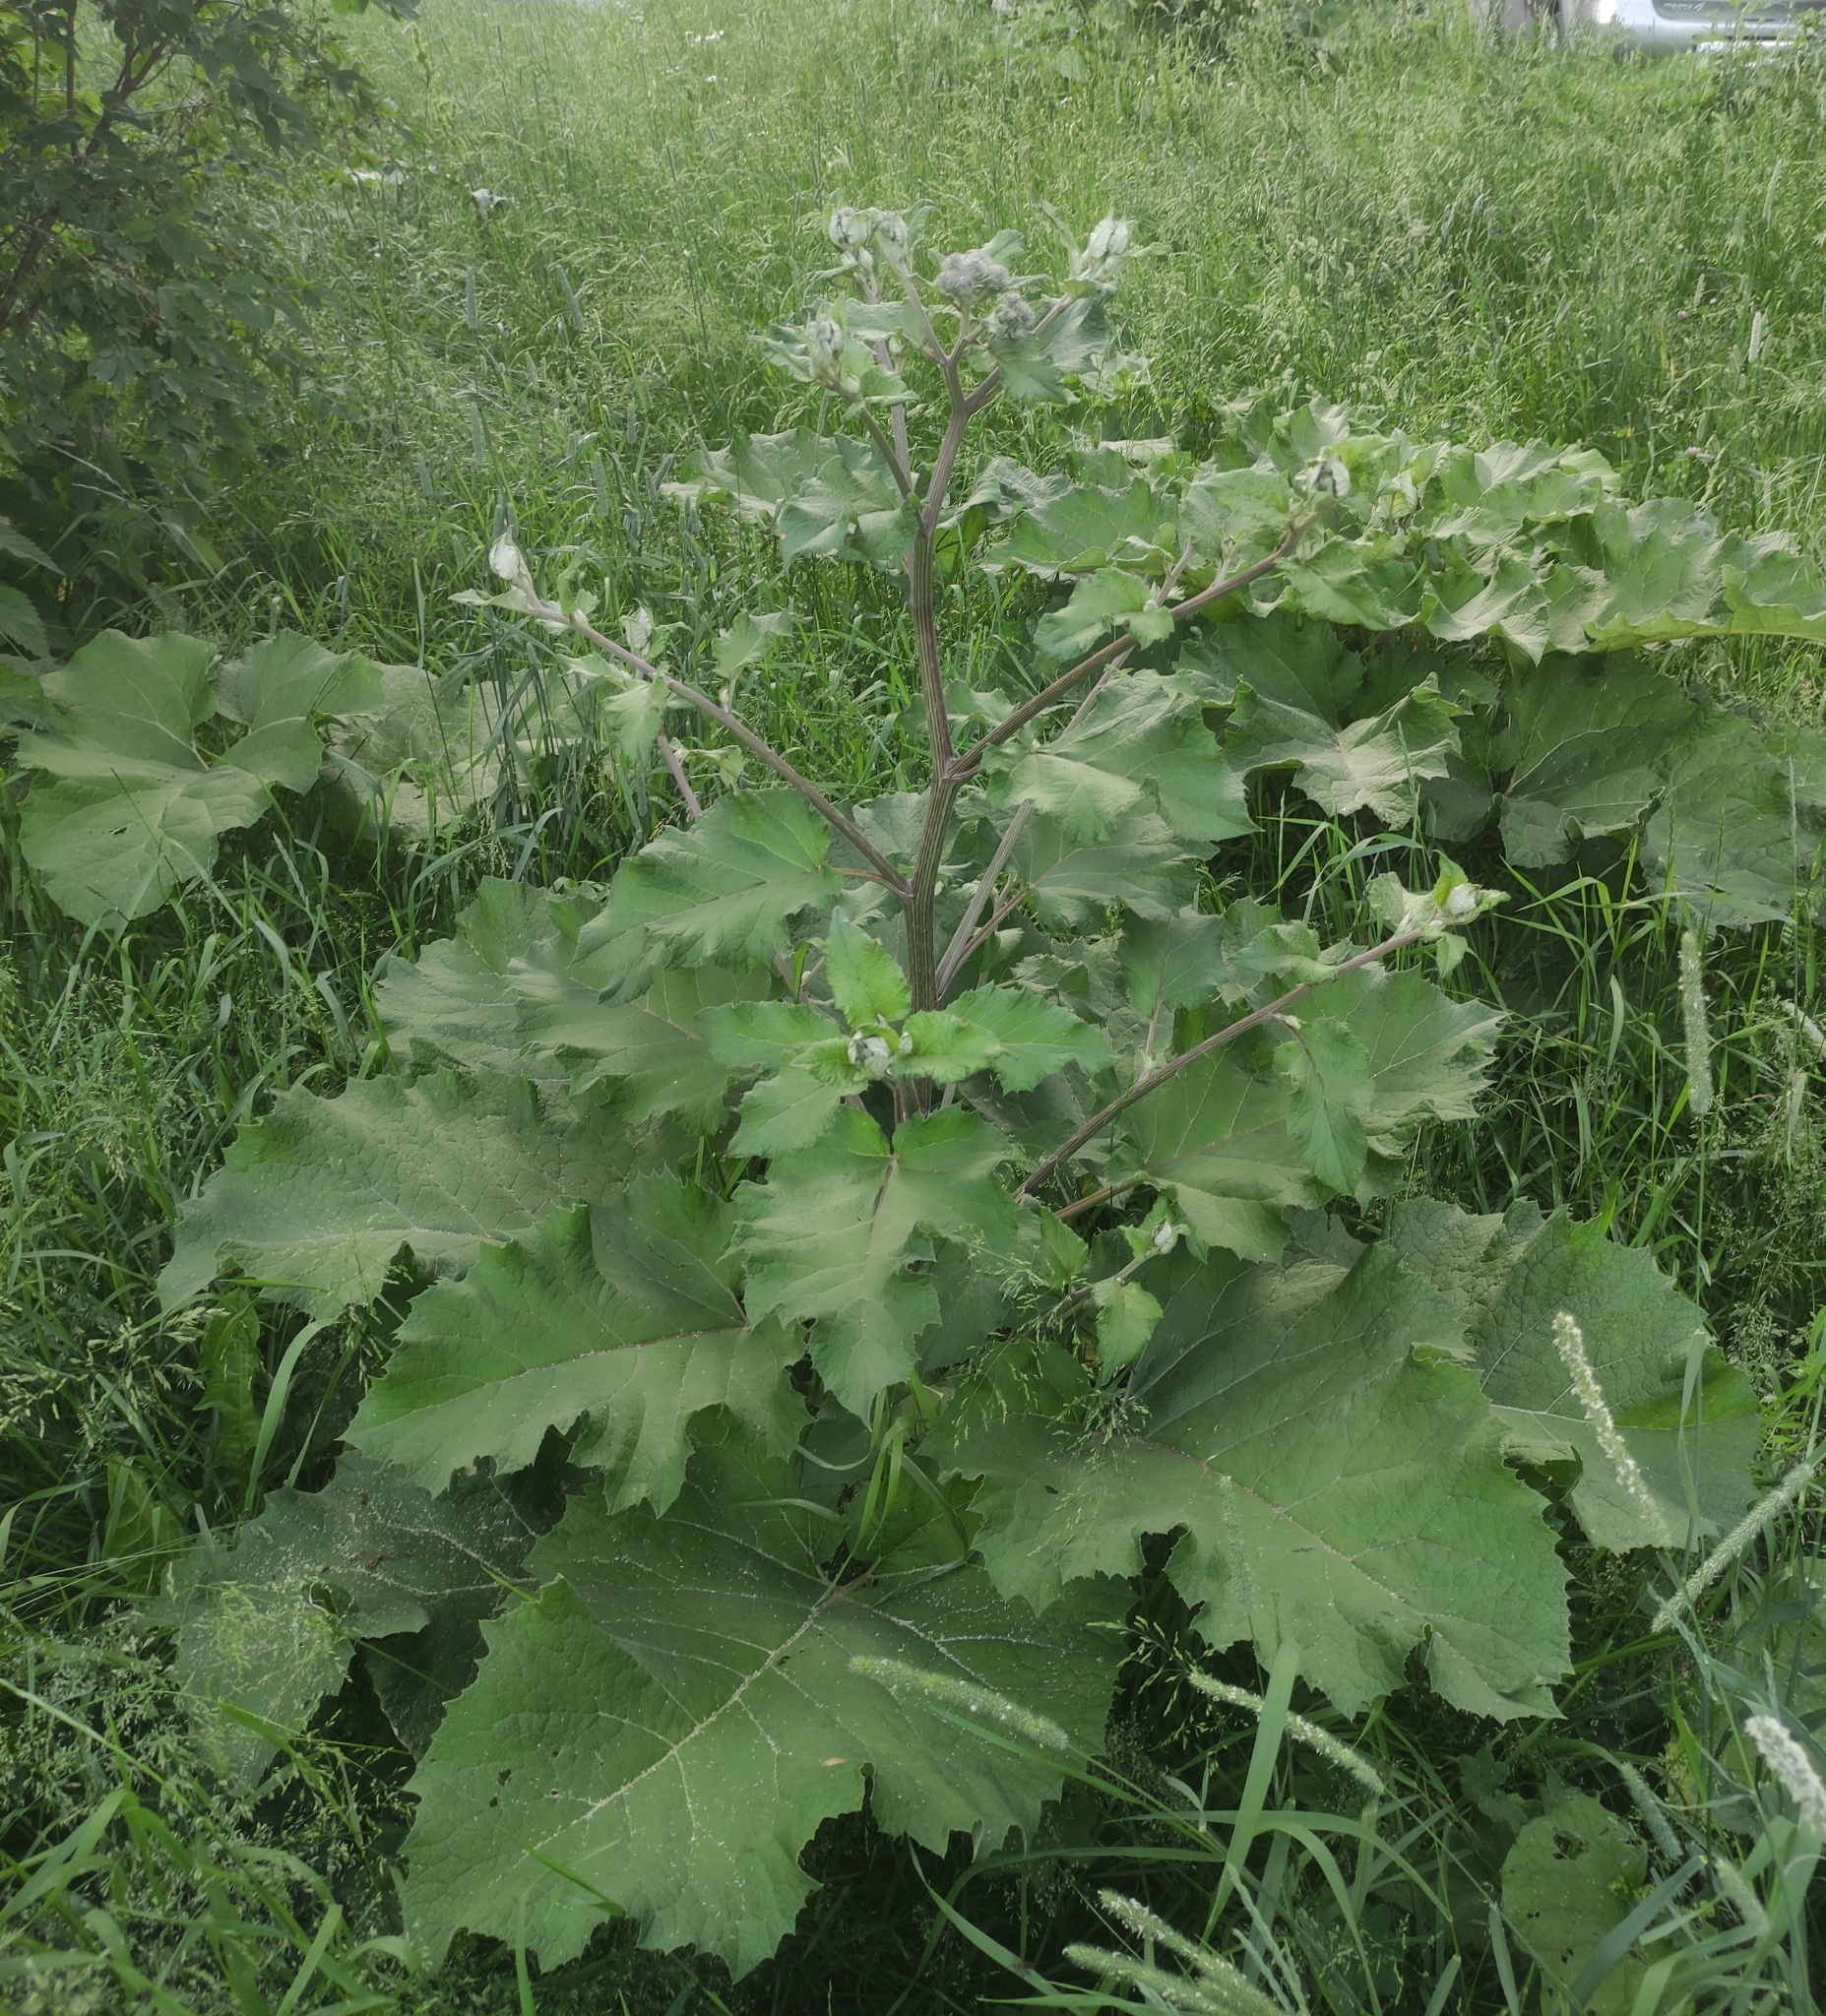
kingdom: Plantae
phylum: Tracheophyta
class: Magnoliopsida
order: Asterales
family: Asteraceae
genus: Arctium
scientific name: Arctium tomentosum
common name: Woolly burdock
